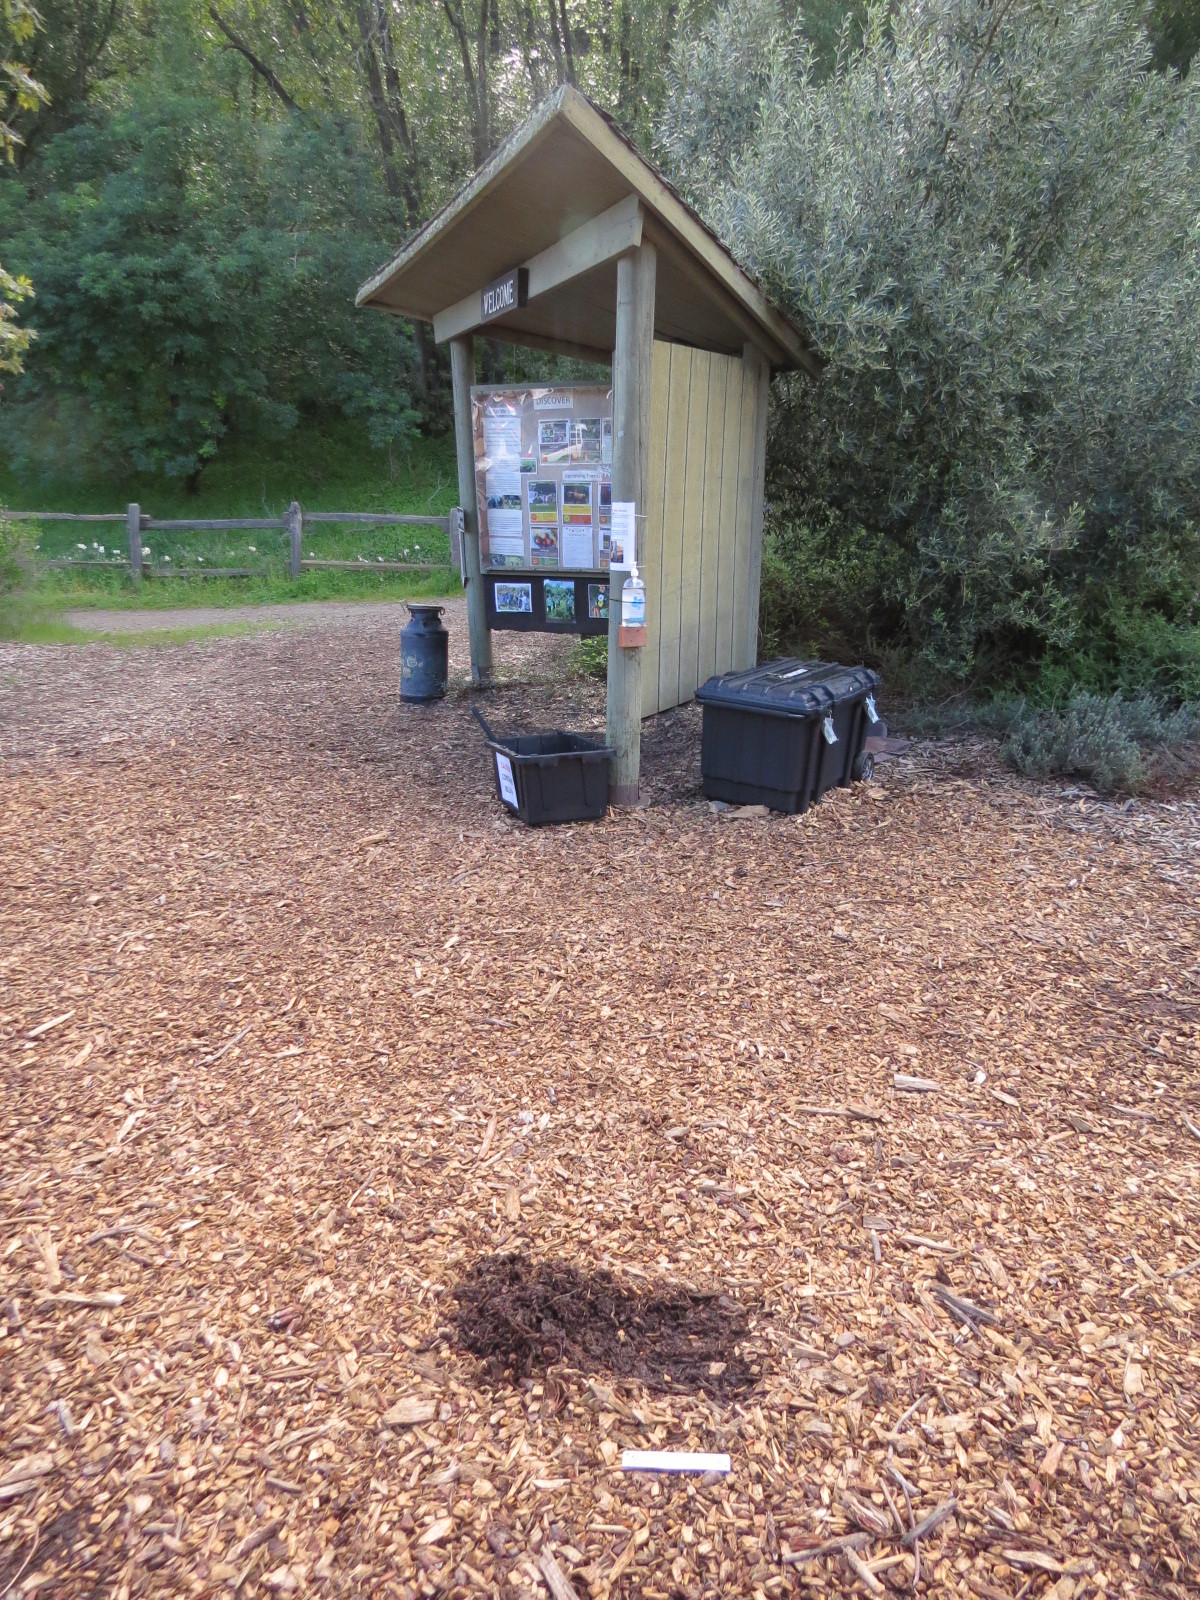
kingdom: Animalia
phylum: Chordata
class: Mammalia
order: Carnivora
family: Felidae
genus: Puma
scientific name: Puma concolor
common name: Puma
